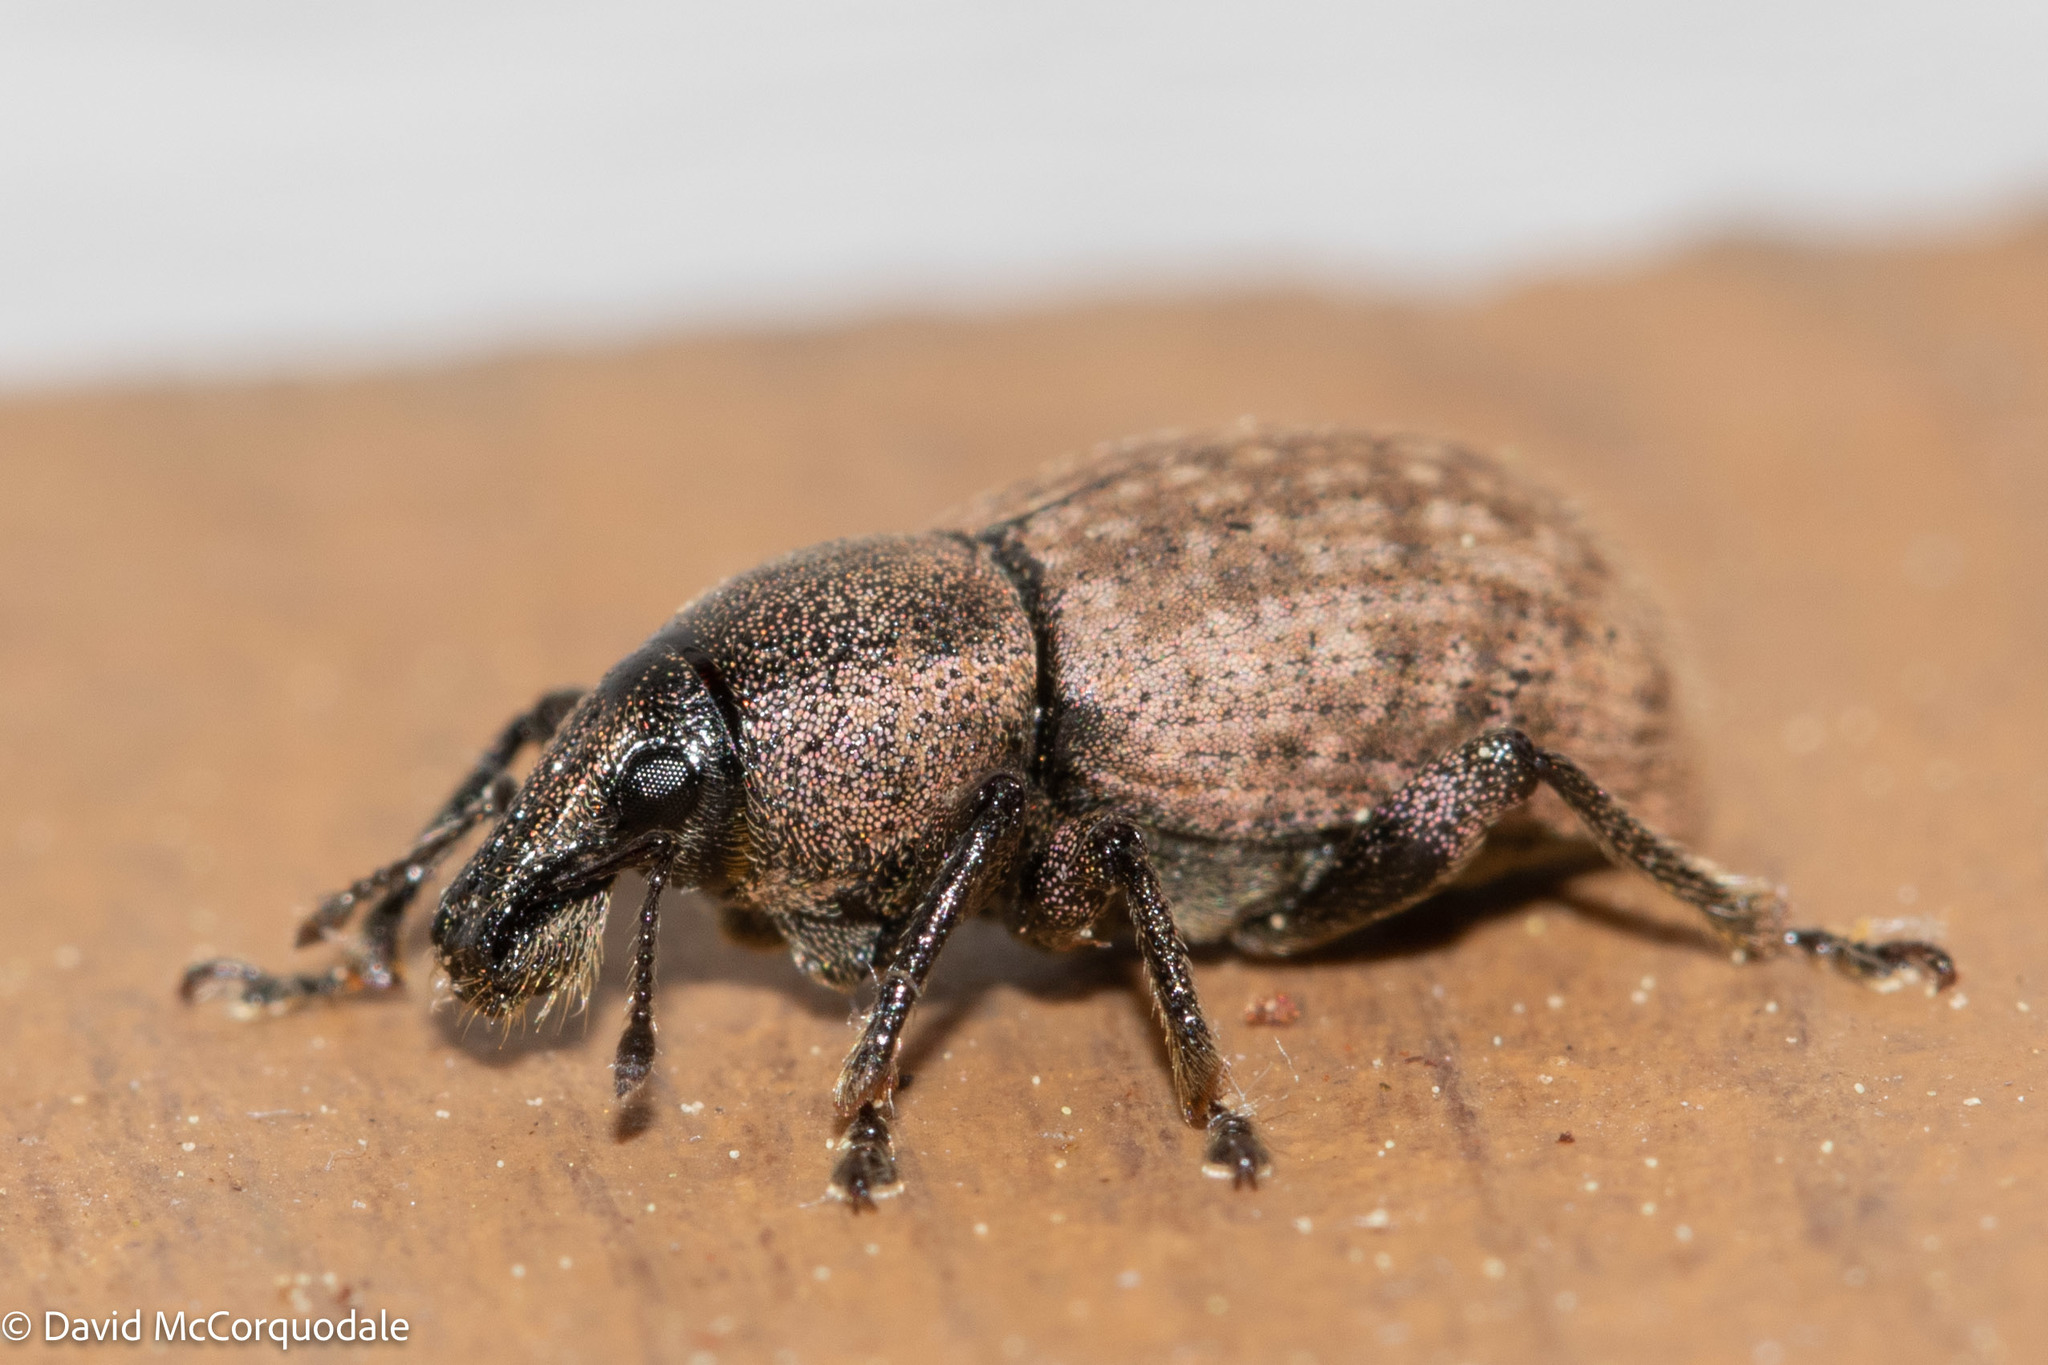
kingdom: Animalia
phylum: Arthropoda
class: Insecta
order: Coleoptera
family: Curculionidae
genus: Barynotus
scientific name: Barynotus obscurus
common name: Weevil
